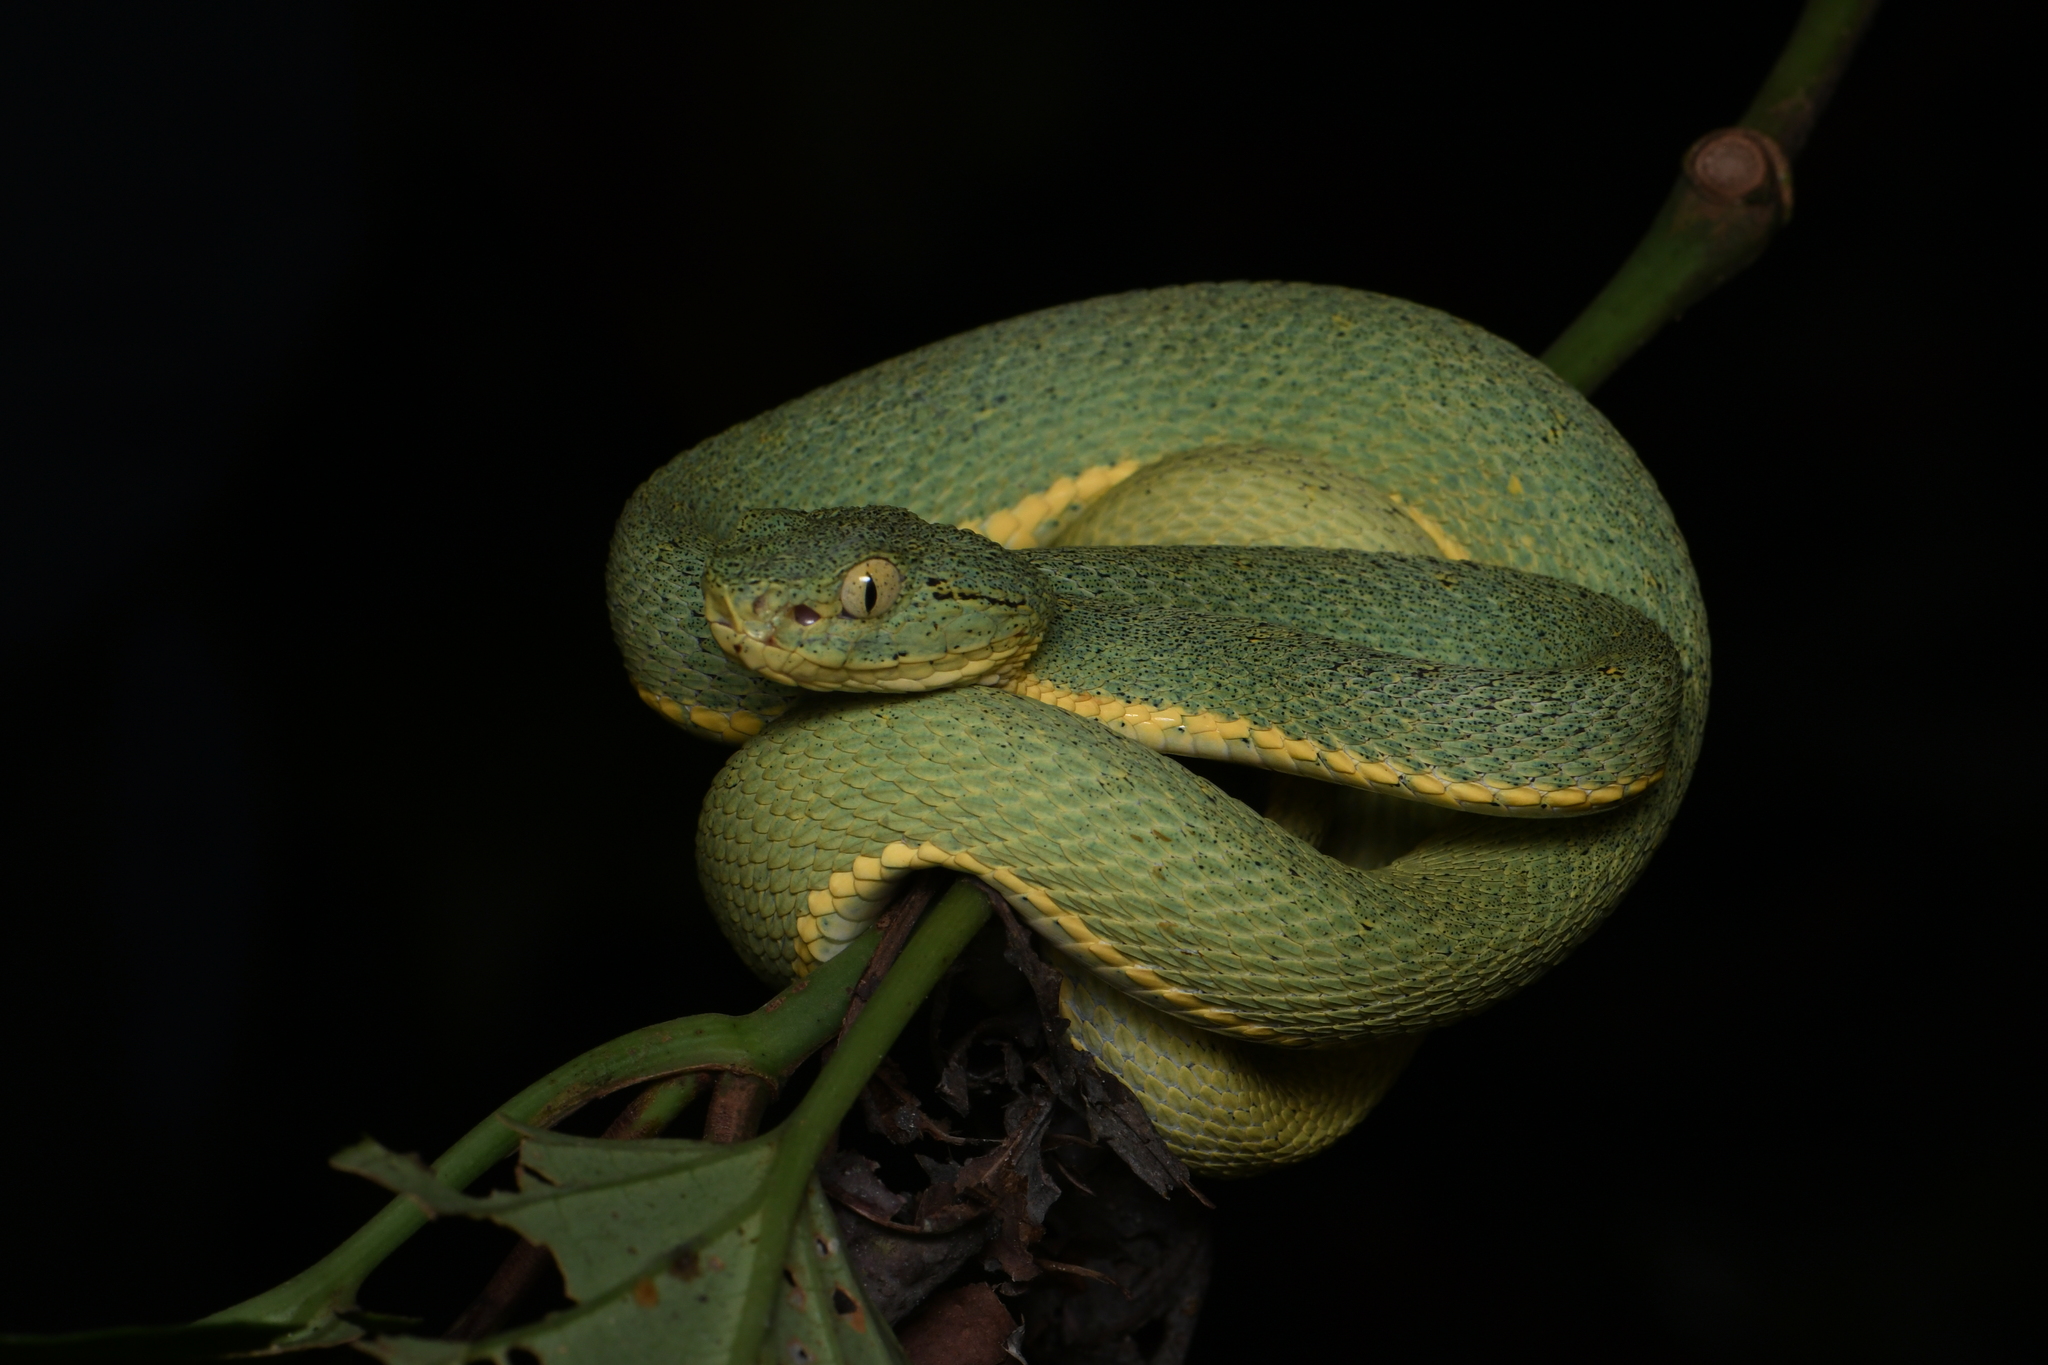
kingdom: Animalia
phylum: Chordata
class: Squamata
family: Viperidae
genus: Bothrops
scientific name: Bothrops bilineatus
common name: Green jararaca
